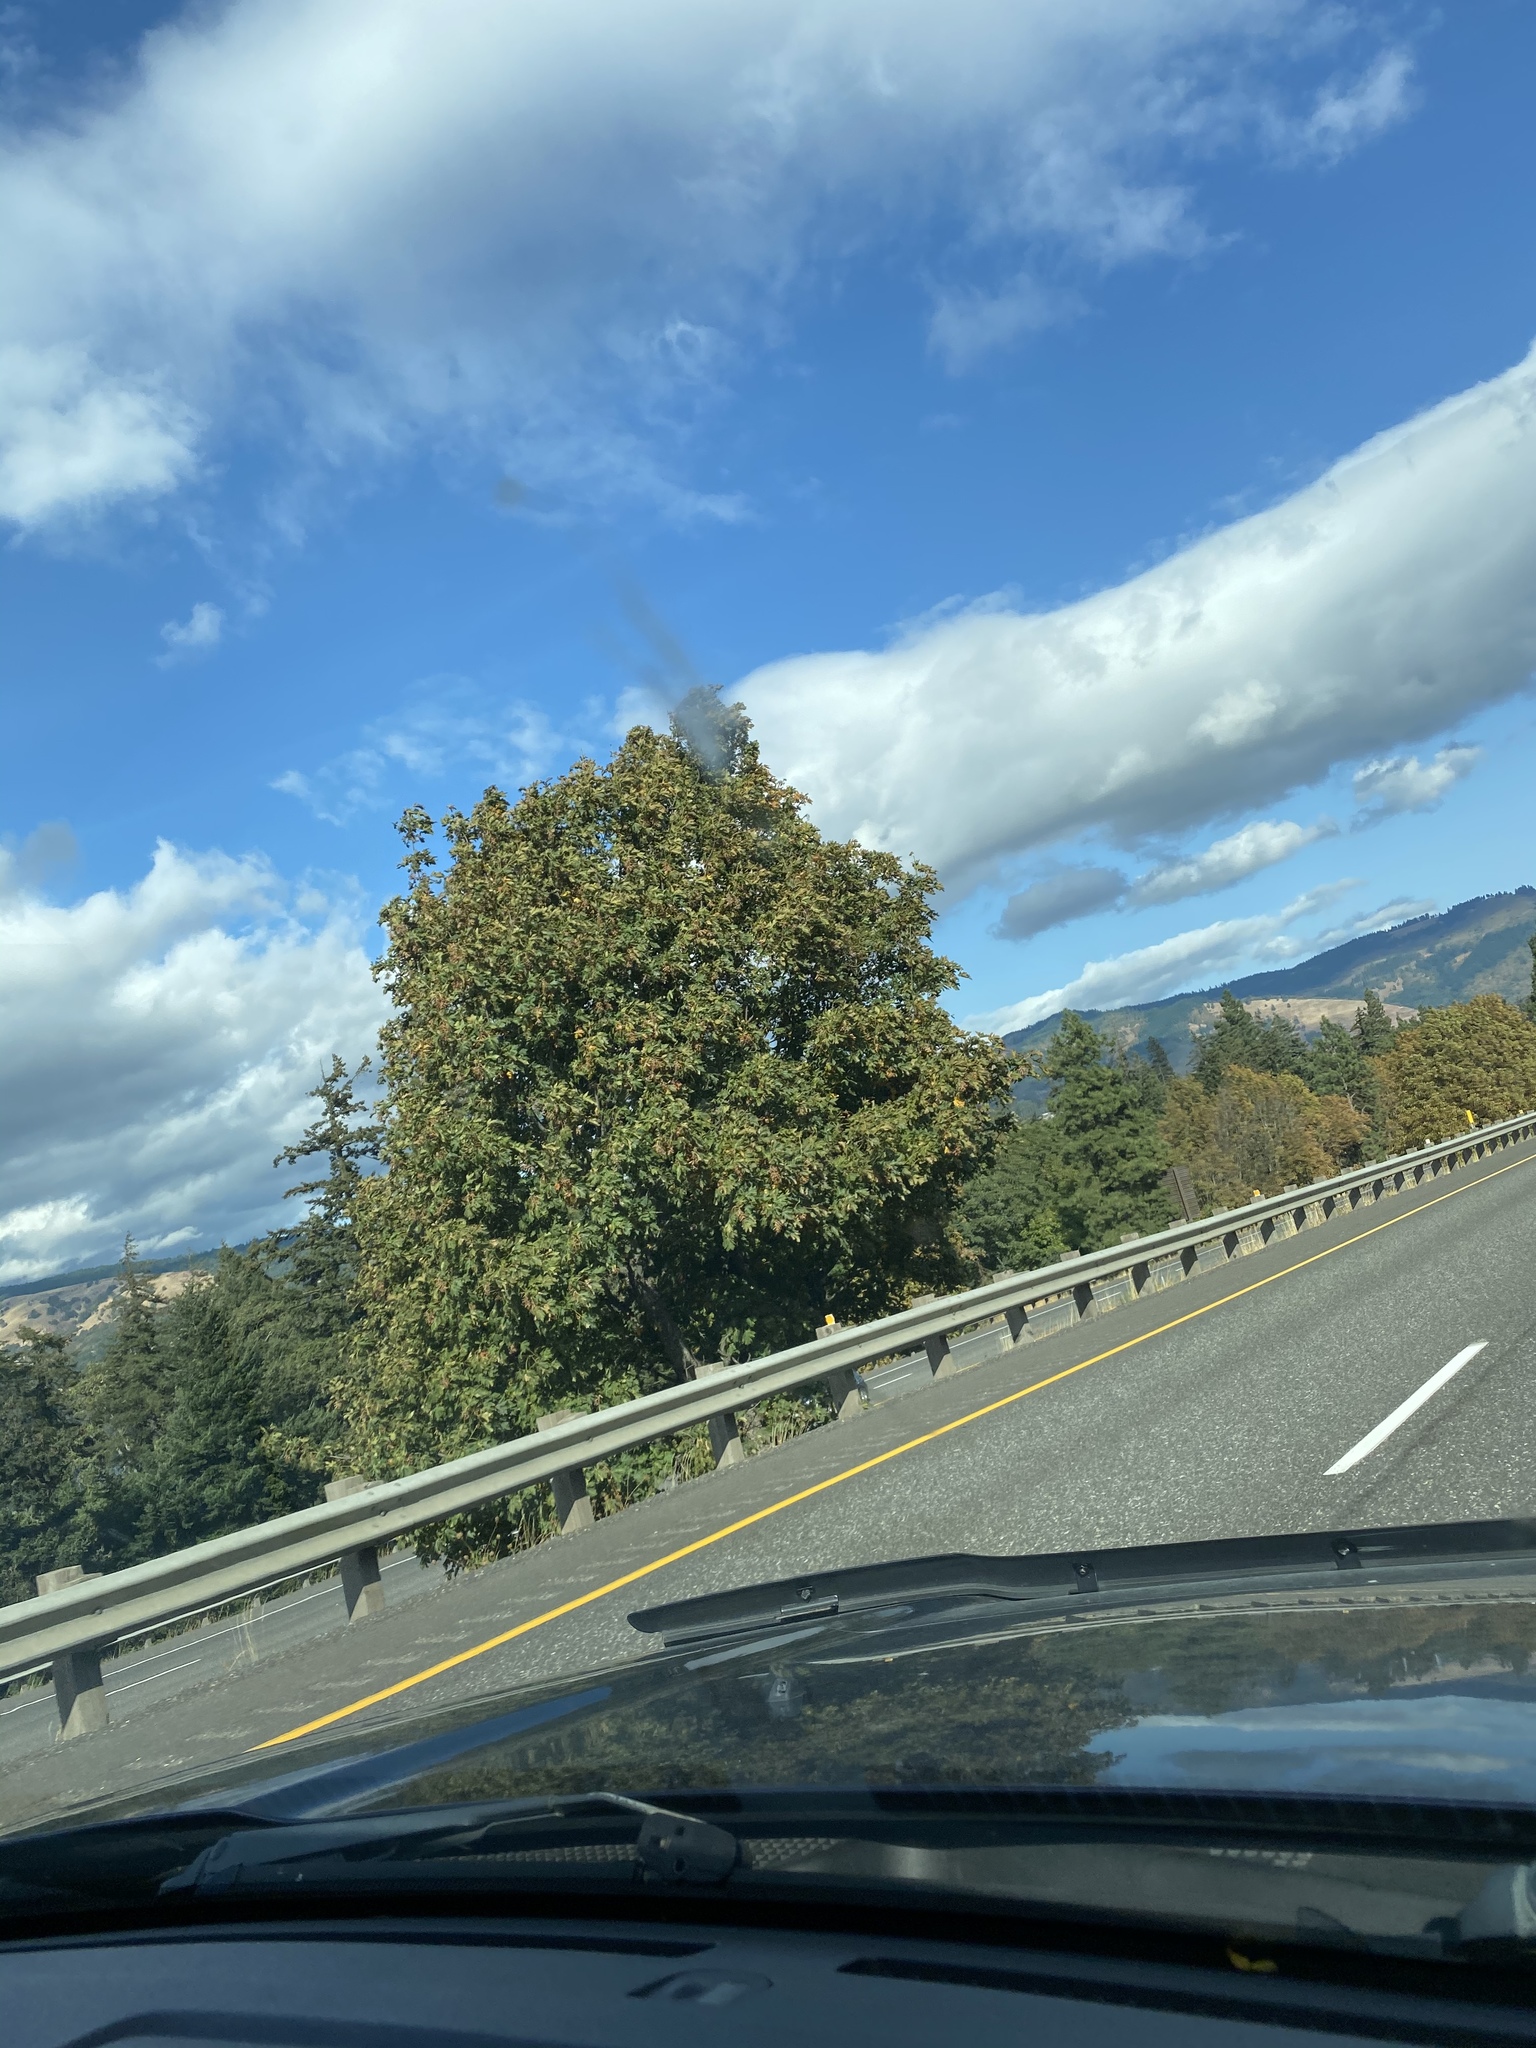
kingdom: Plantae
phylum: Tracheophyta
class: Magnoliopsida
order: Sapindales
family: Sapindaceae
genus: Acer
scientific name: Acer macrophyllum
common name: Oregon maple
